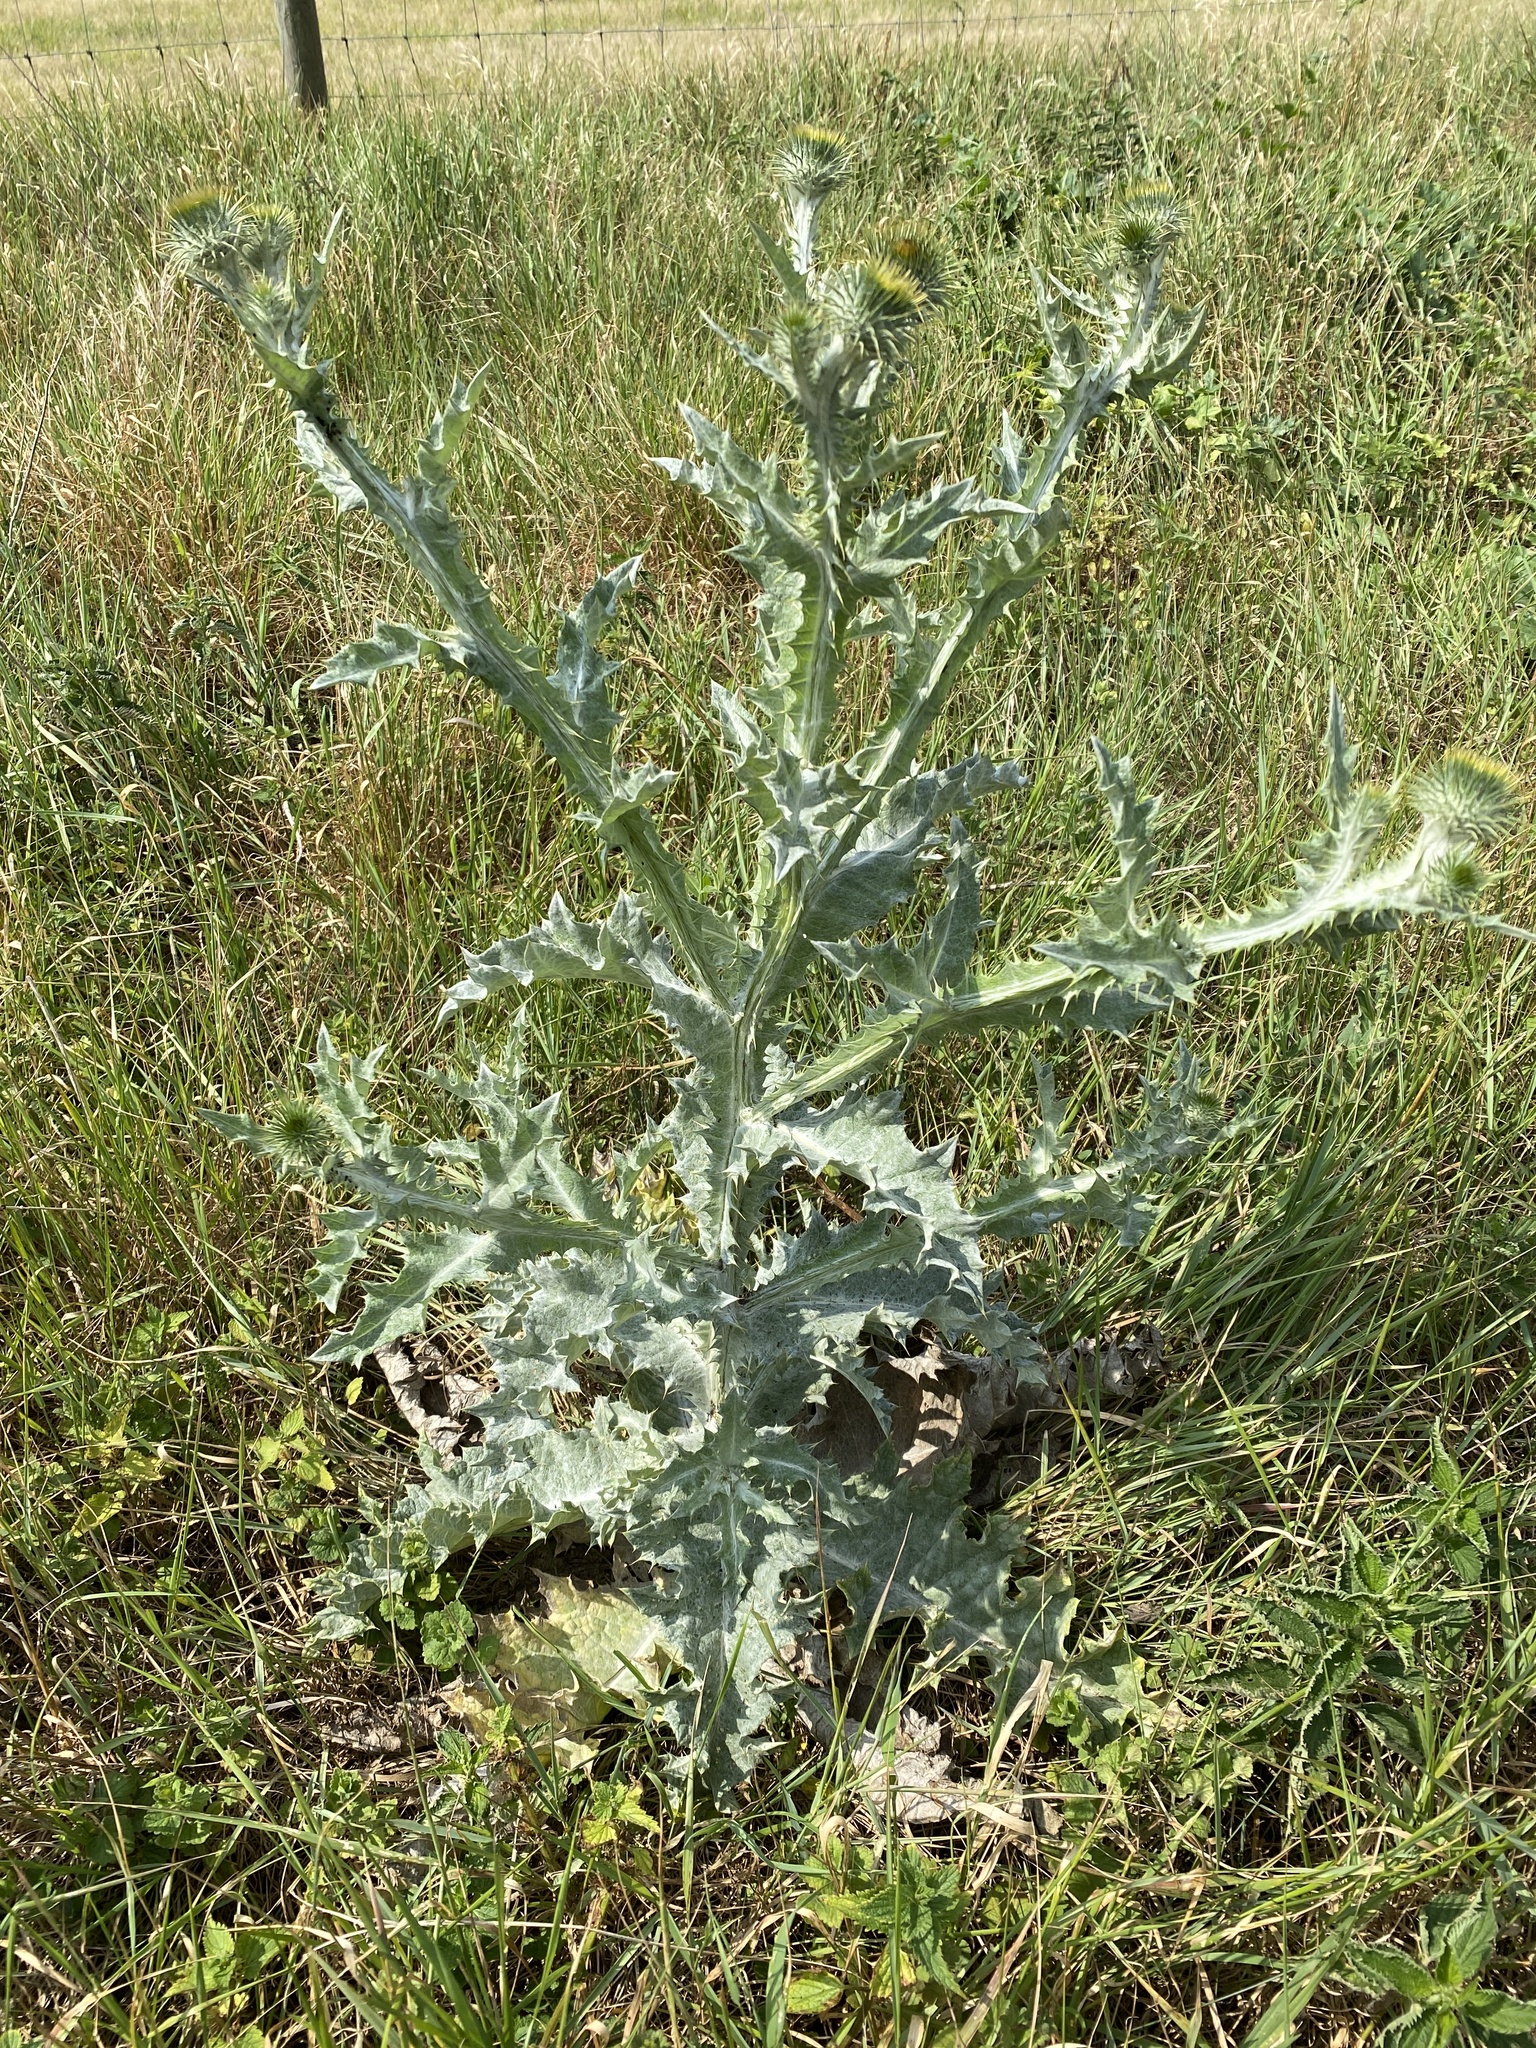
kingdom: Plantae
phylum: Tracheophyta
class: Magnoliopsida
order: Asterales
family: Asteraceae
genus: Onopordum
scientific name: Onopordum acanthium
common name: Scotch thistle
